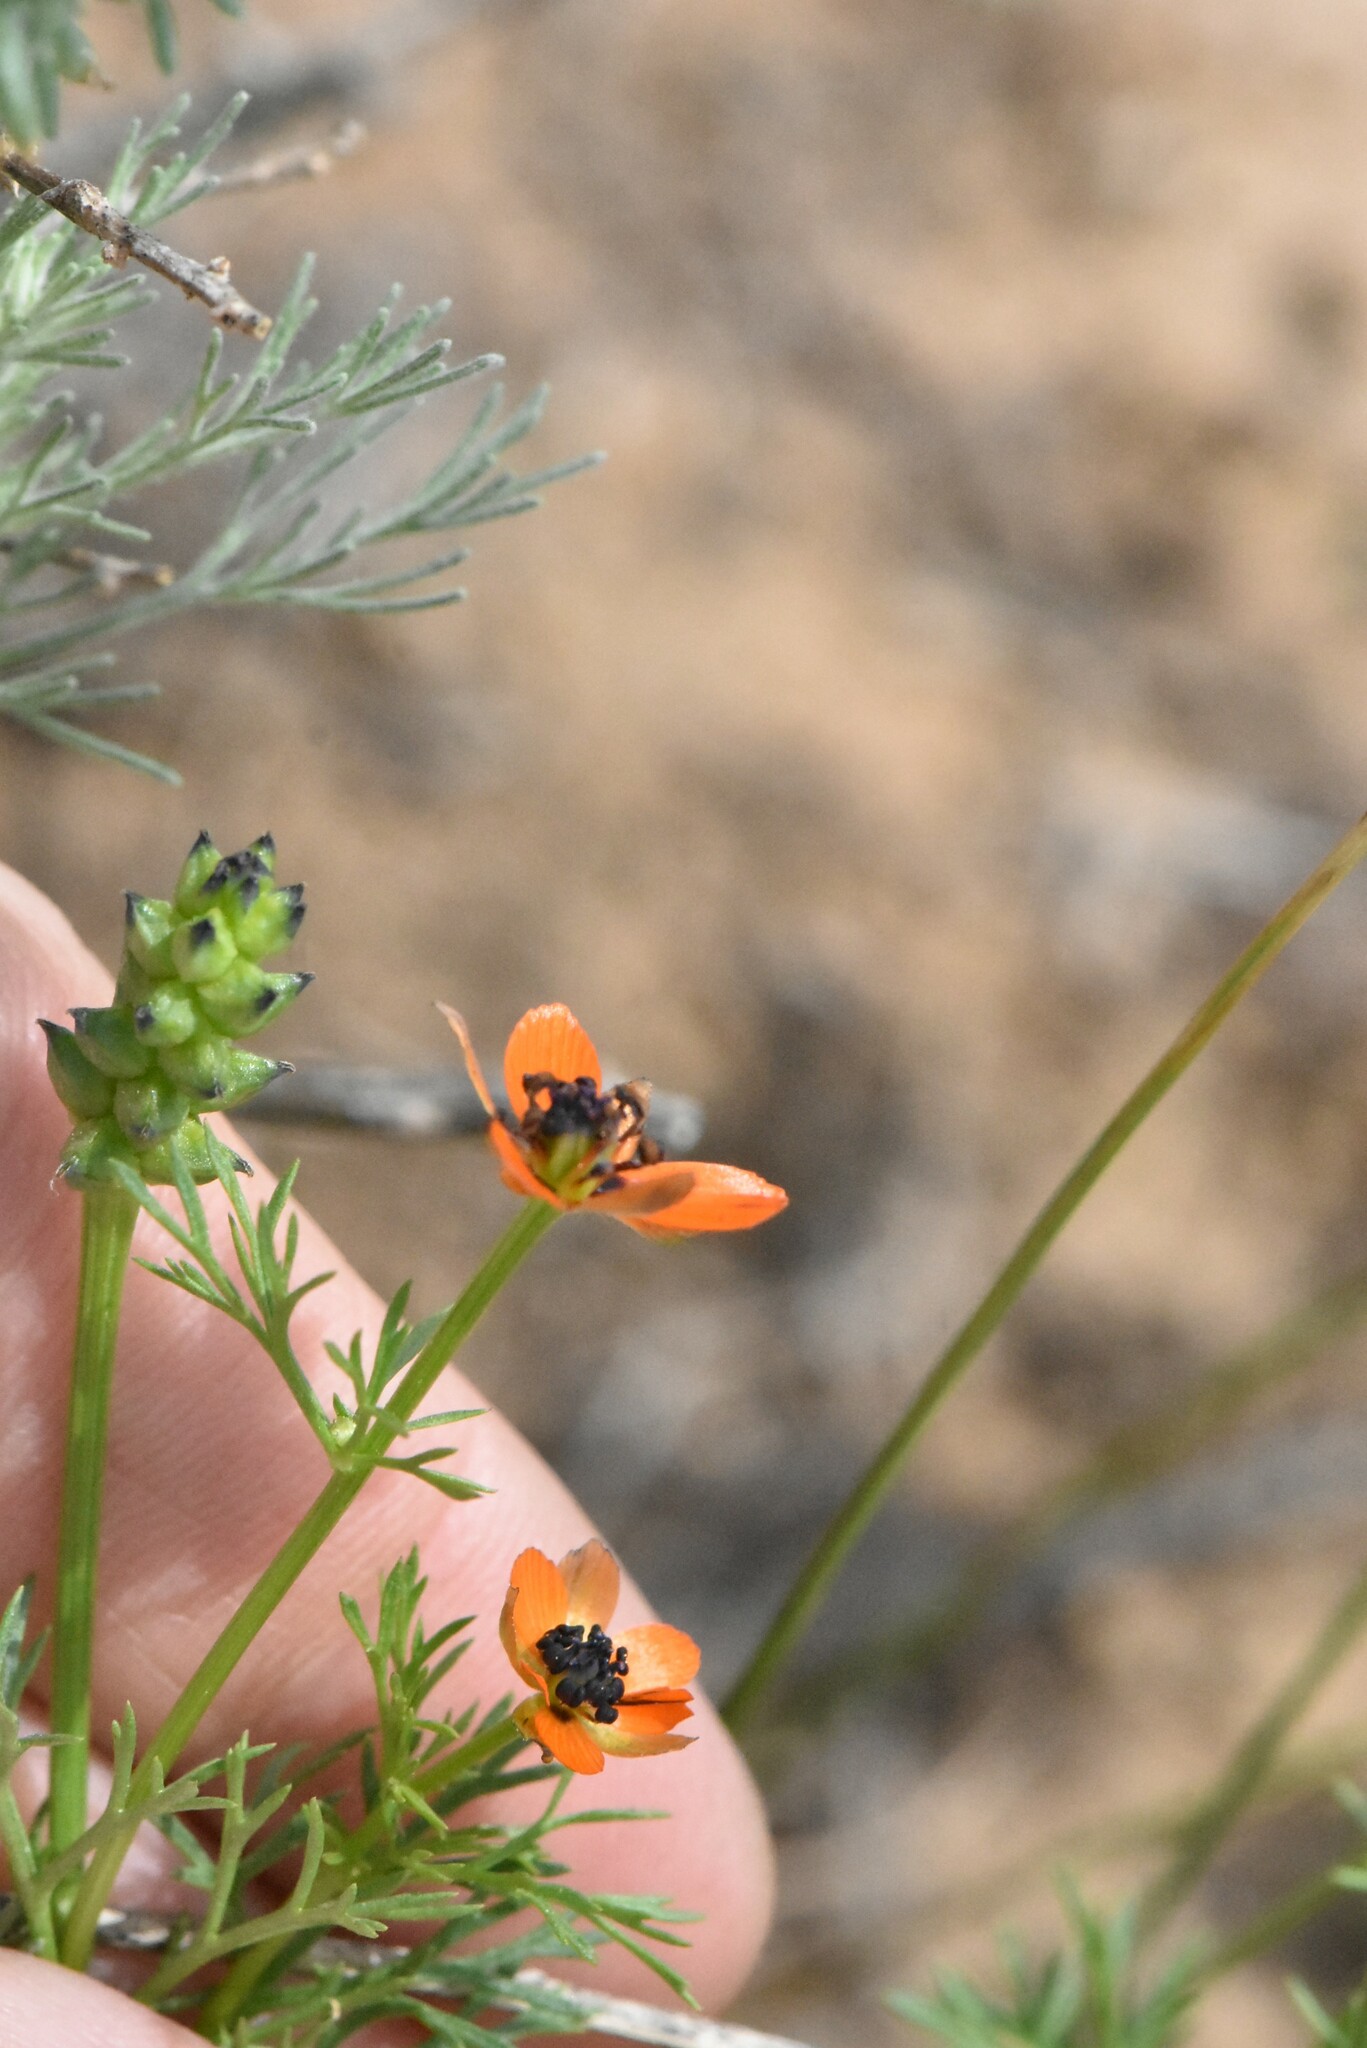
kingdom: Plantae
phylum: Tracheophyta
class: Magnoliopsida
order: Ranunculales
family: Ranunculaceae
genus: Adonis
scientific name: Adonis aestivalis
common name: Summer pheasant's-eye
